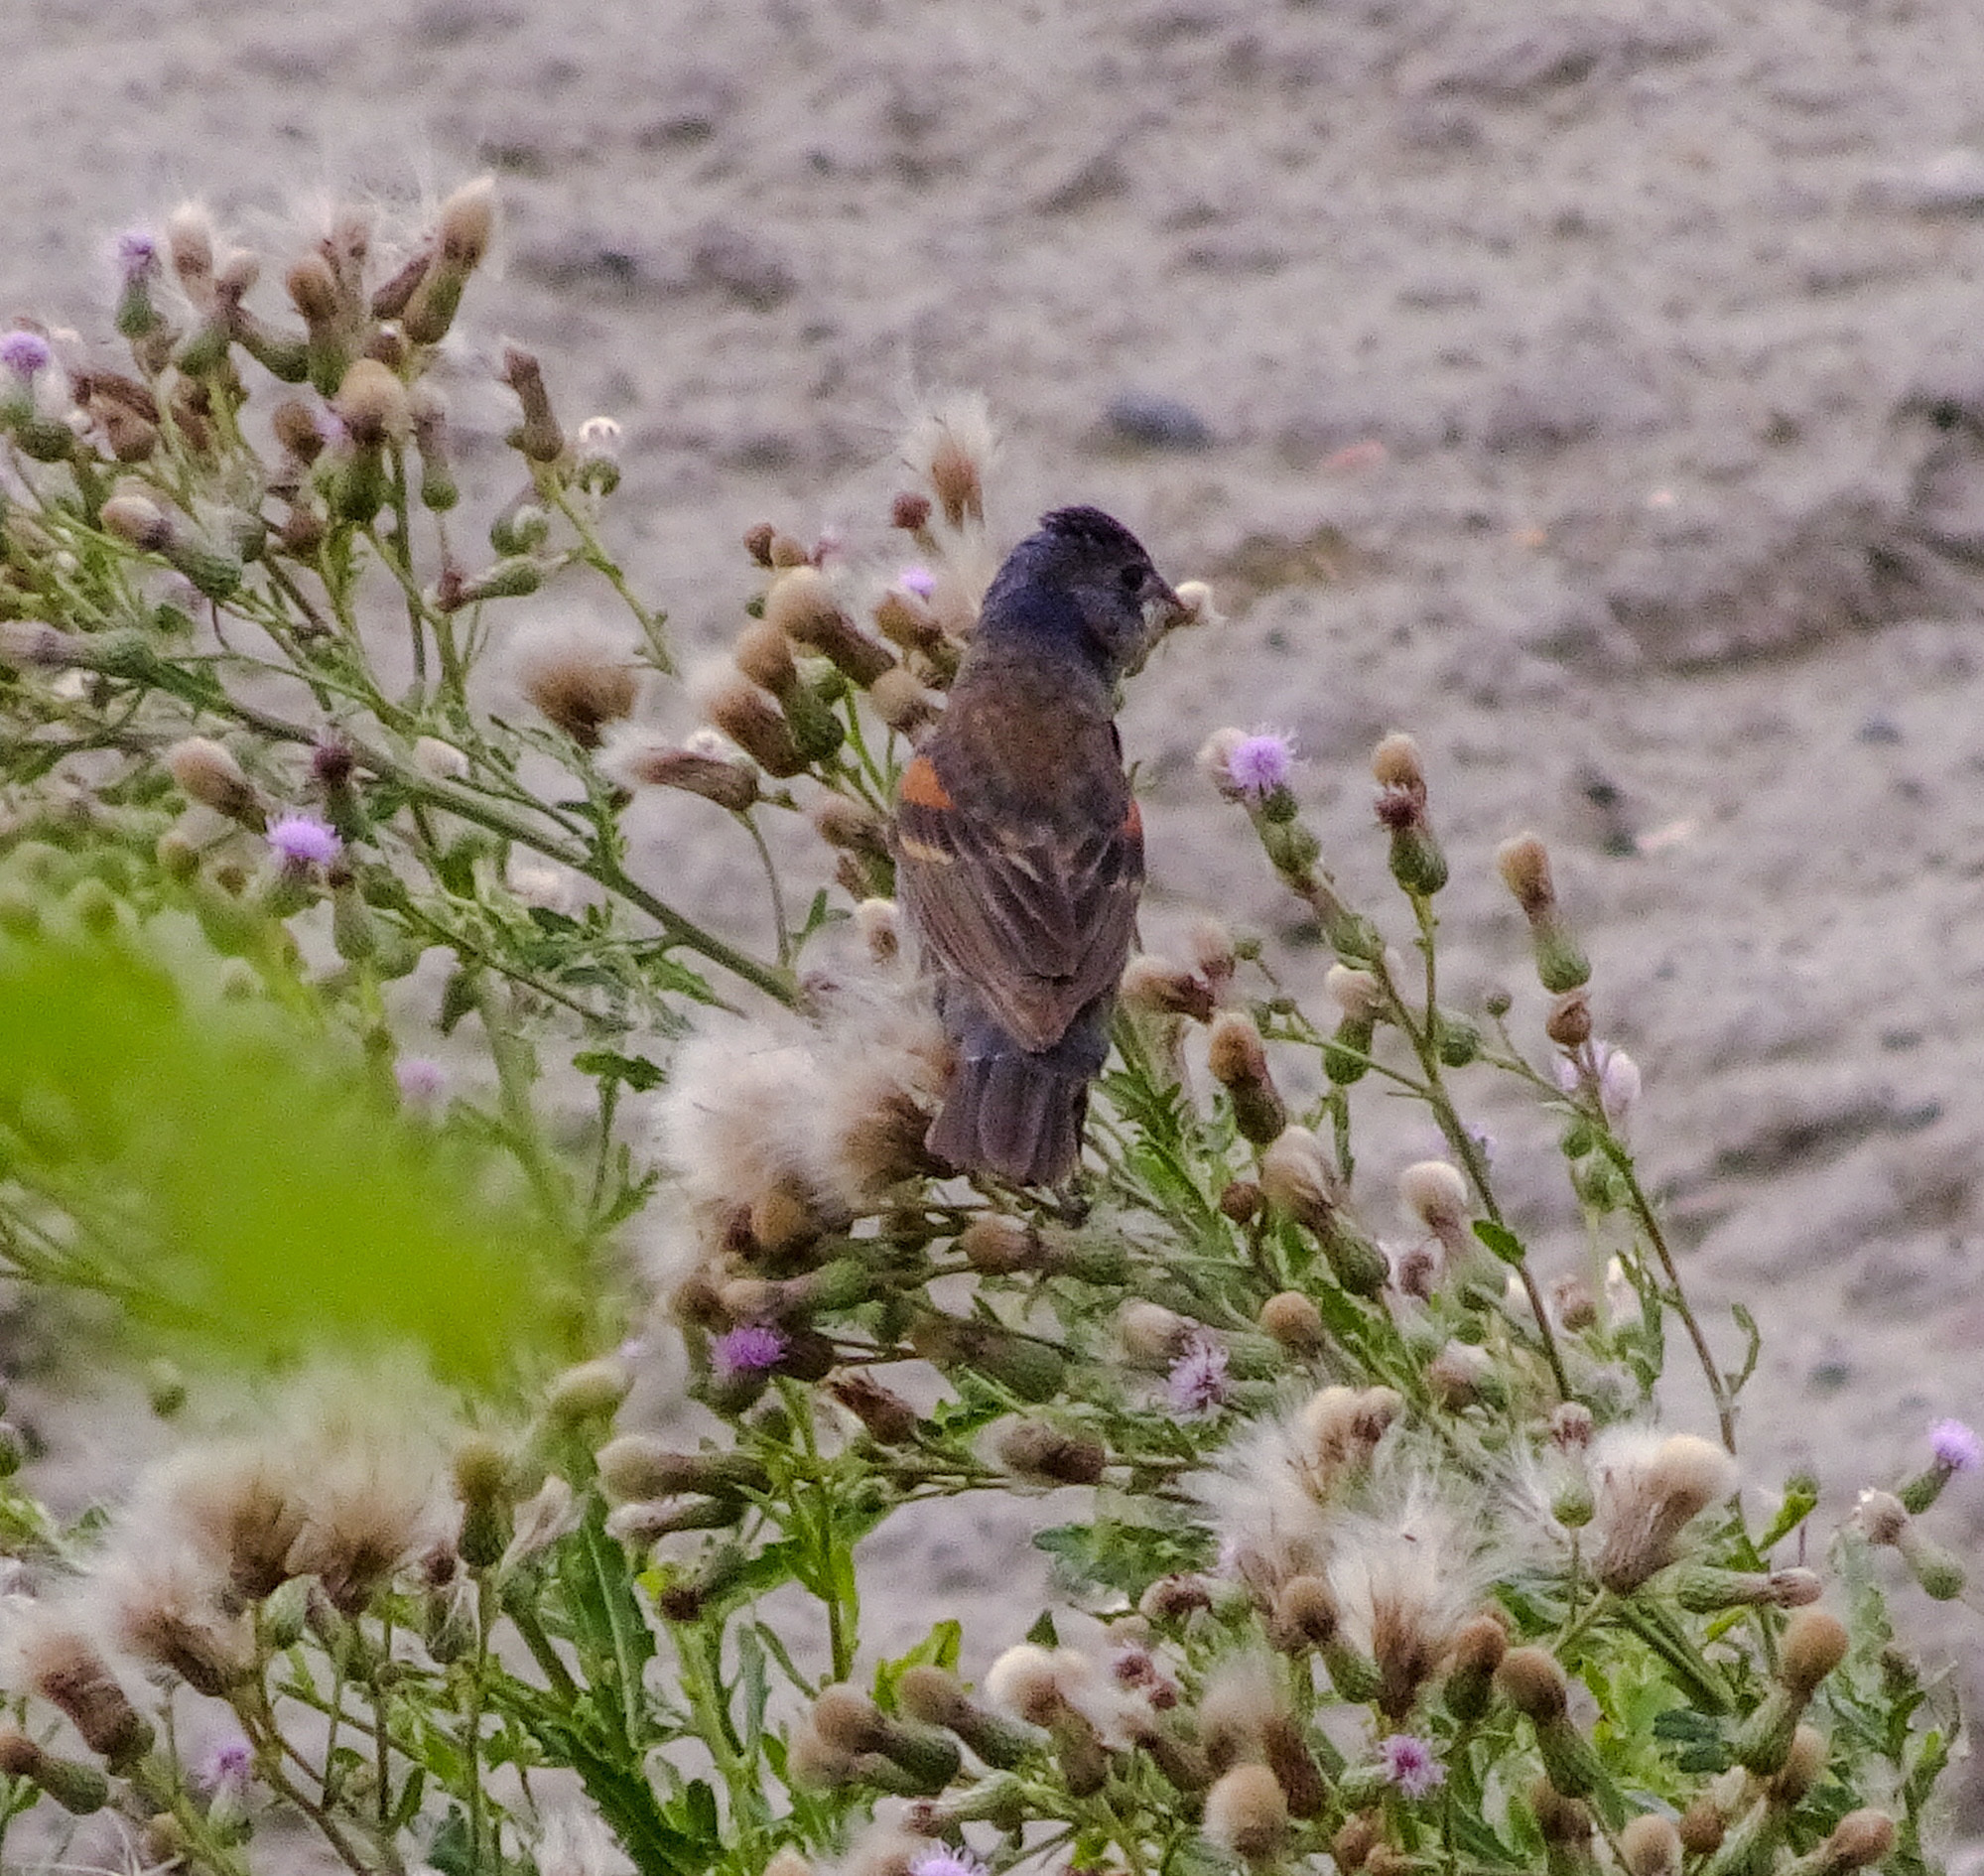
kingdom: Animalia
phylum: Chordata
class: Aves
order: Passeriformes
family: Cardinalidae
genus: Passerina
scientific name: Passerina caerulea
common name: Blue grosbeak
